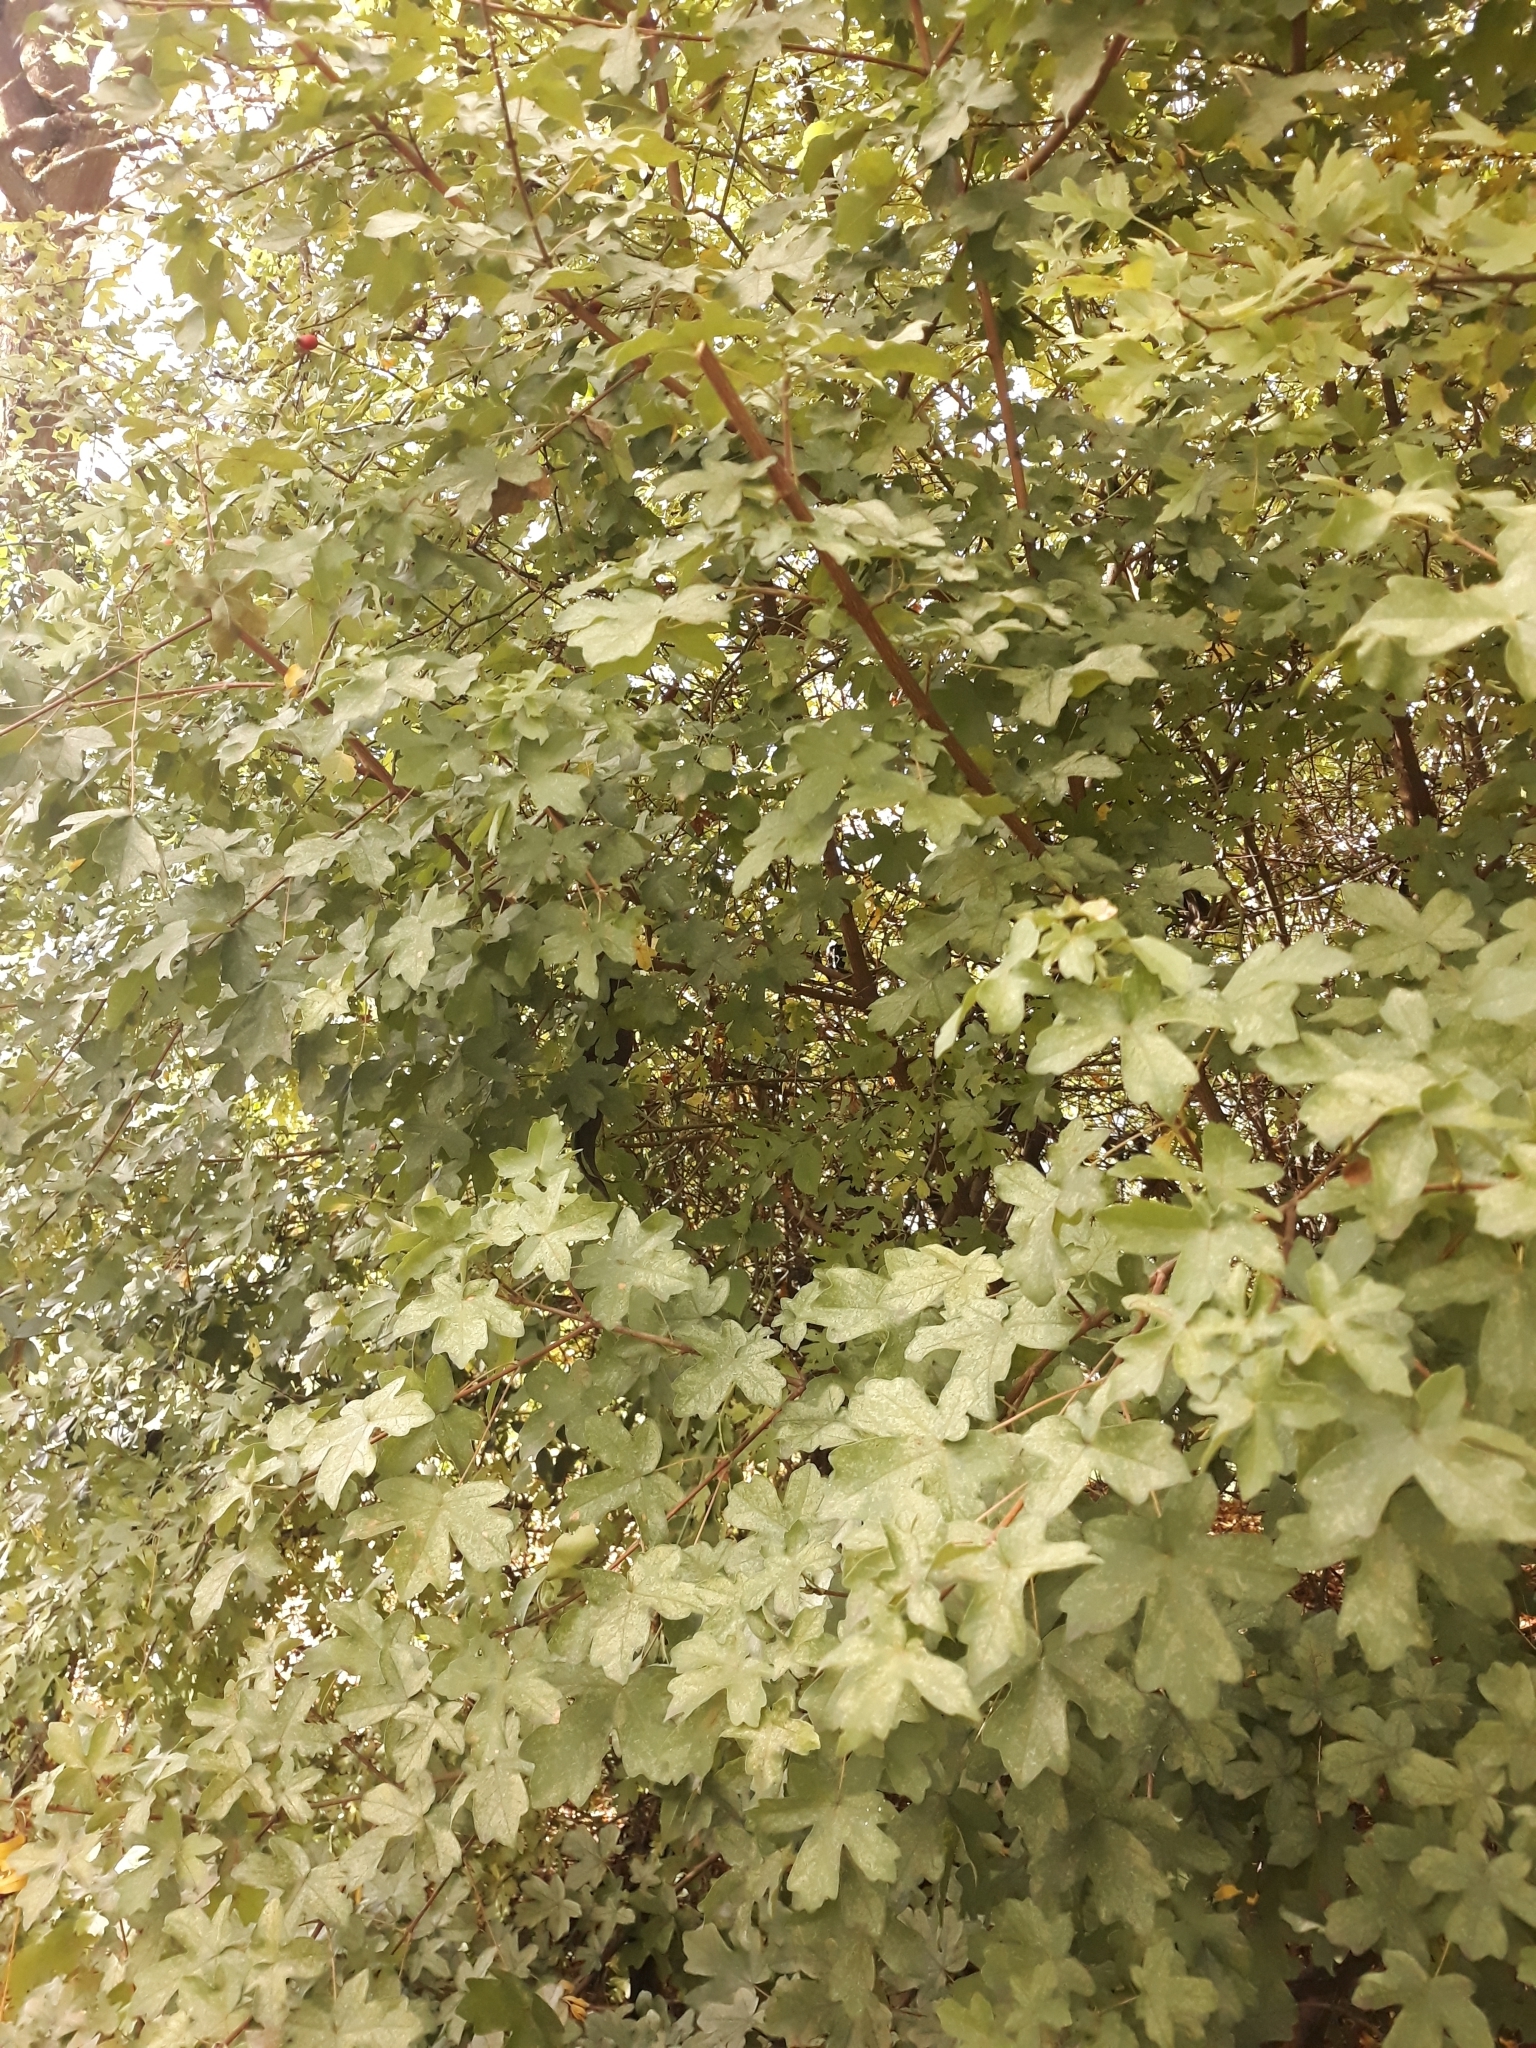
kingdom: Plantae
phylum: Tracheophyta
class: Magnoliopsida
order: Sapindales
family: Sapindaceae
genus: Acer
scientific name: Acer campestre
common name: Field maple
